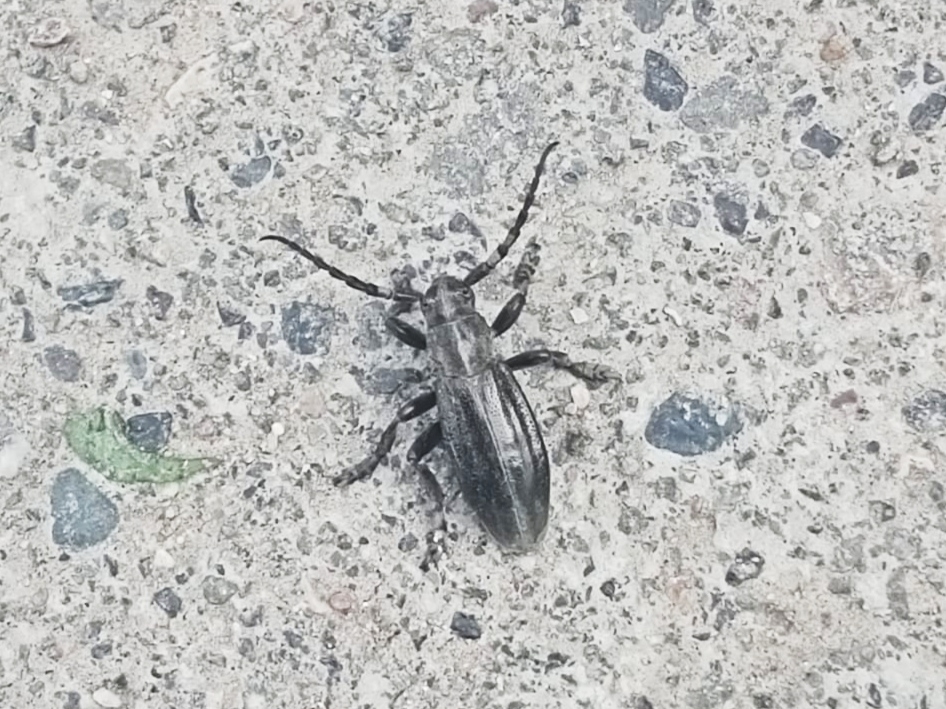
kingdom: Animalia
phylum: Arthropoda
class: Insecta
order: Coleoptera
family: Cerambycidae
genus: Dorcadion
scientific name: Dorcadion carinatum
